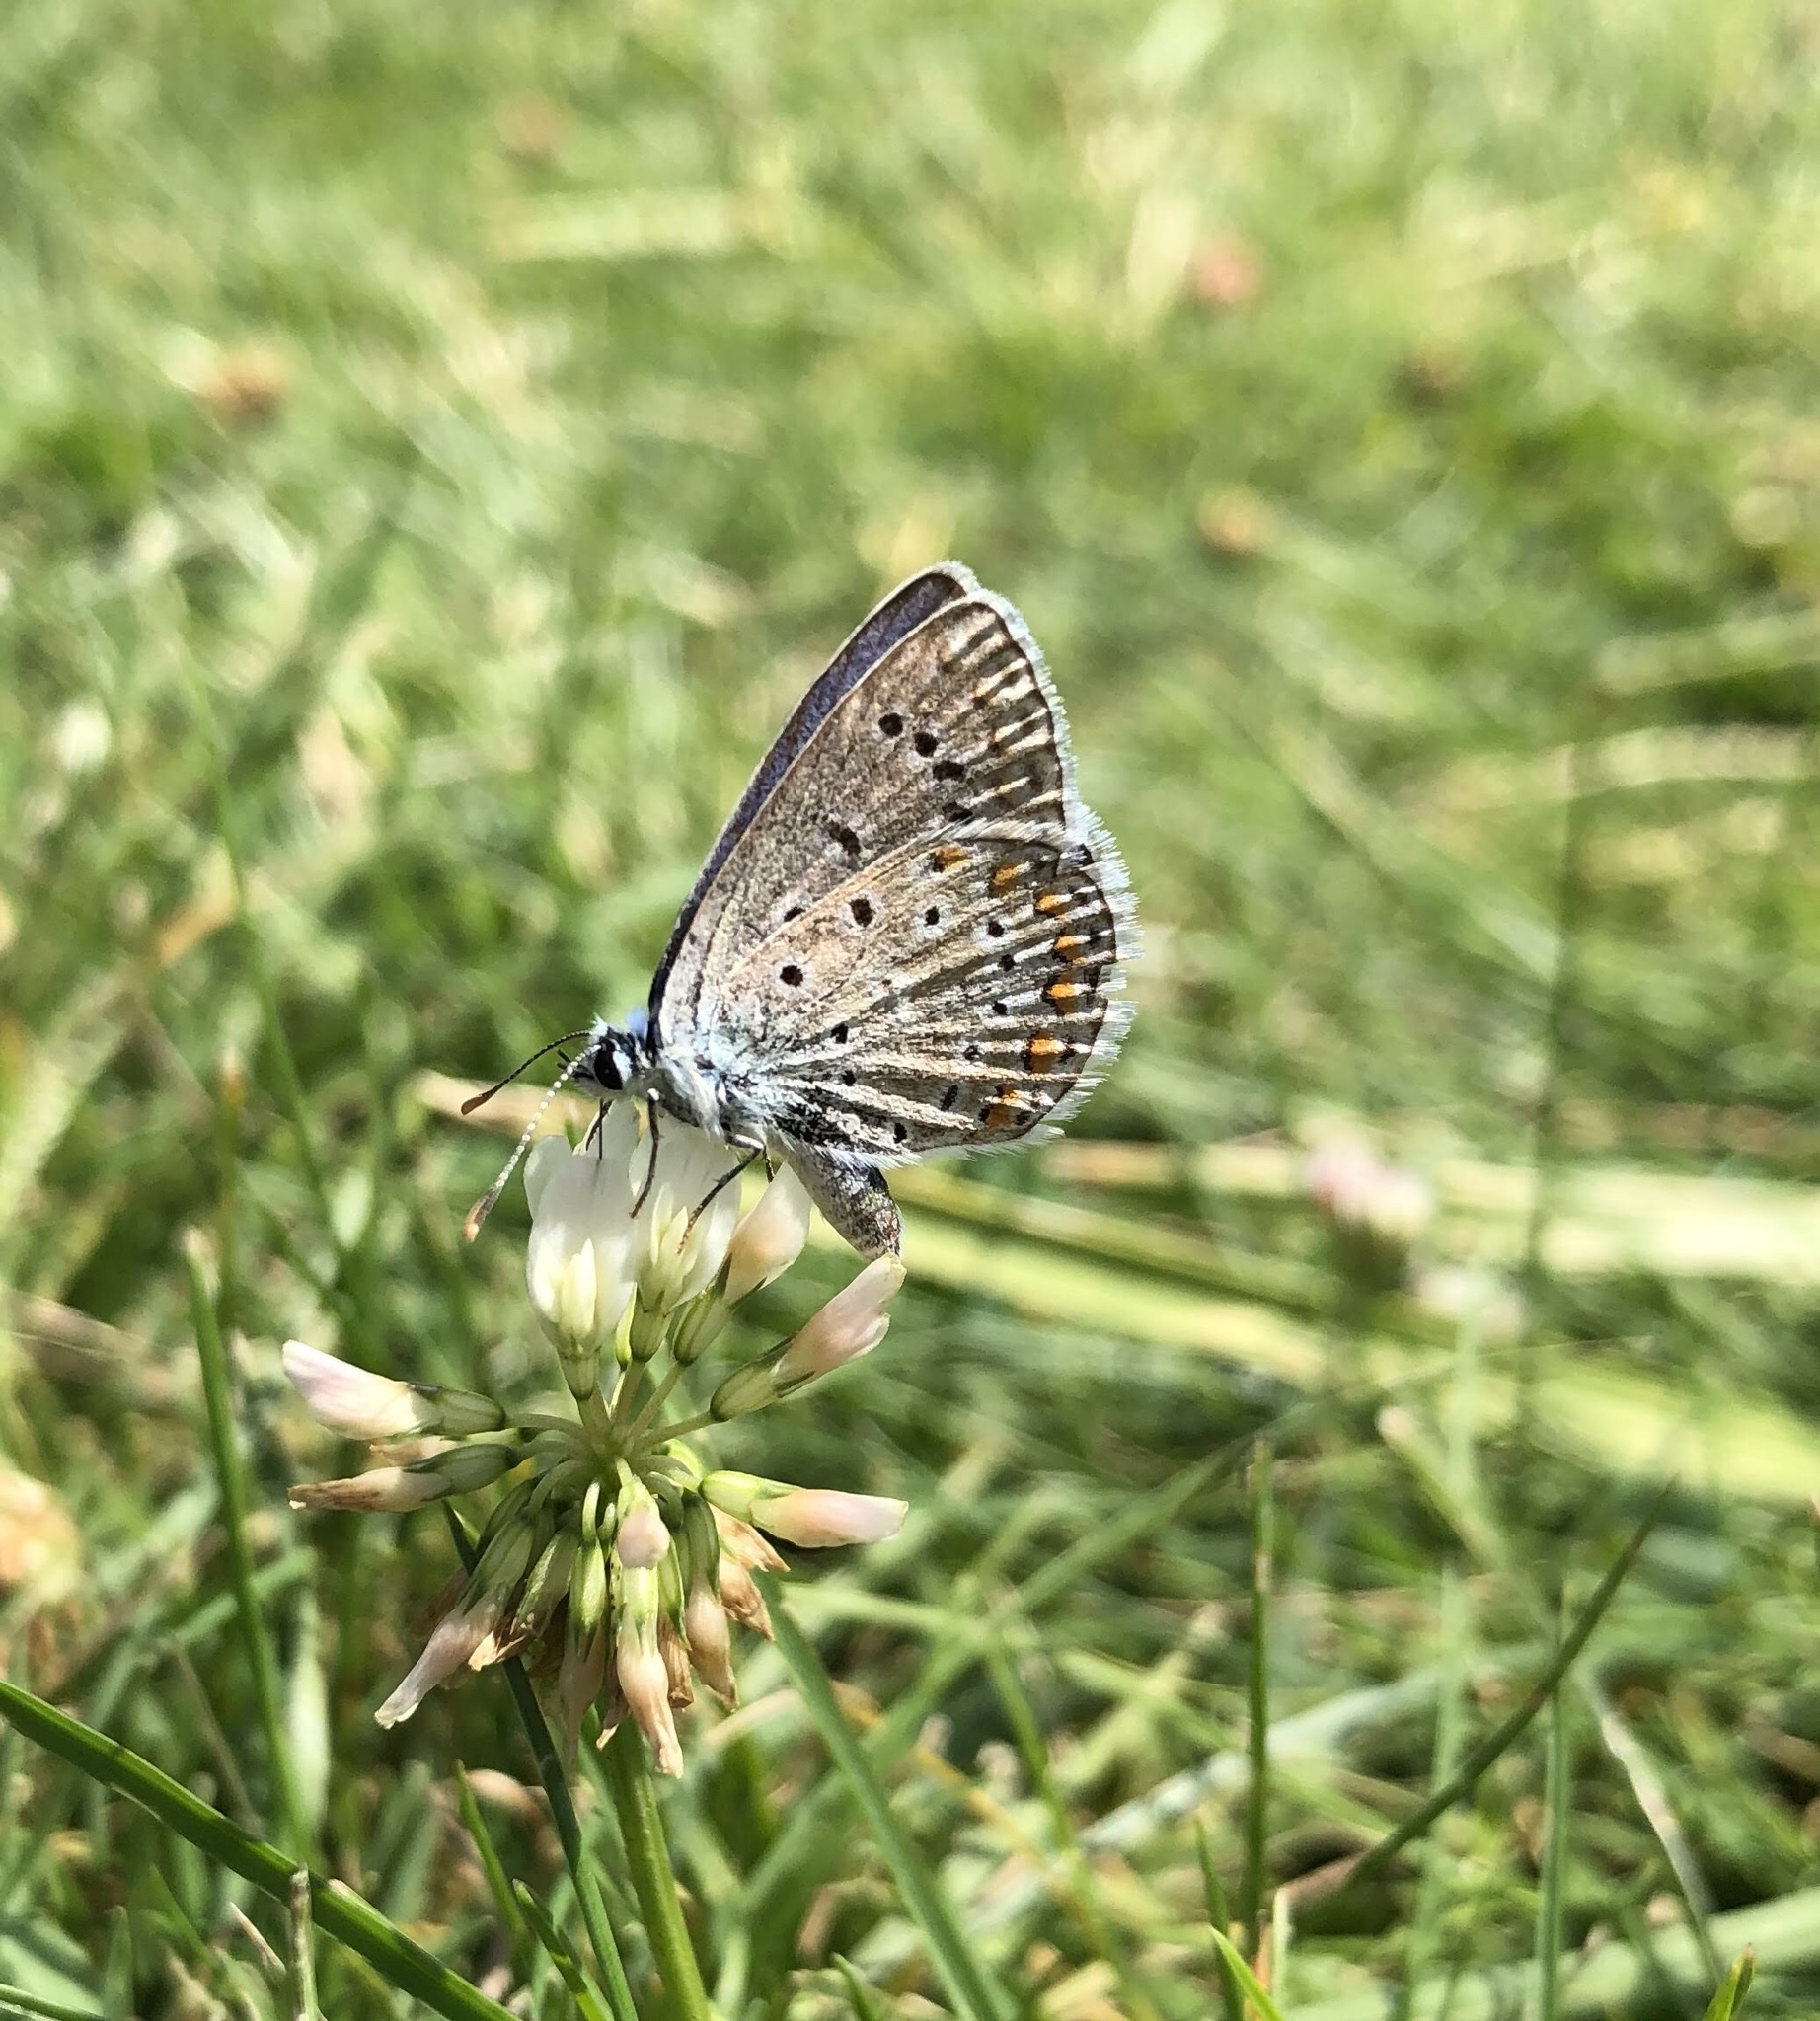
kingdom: Animalia
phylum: Arthropoda
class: Insecta
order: Lepidoptera
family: Lycaenidae
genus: Polyommatus
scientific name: Polyommatus icarus
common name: Common blue
